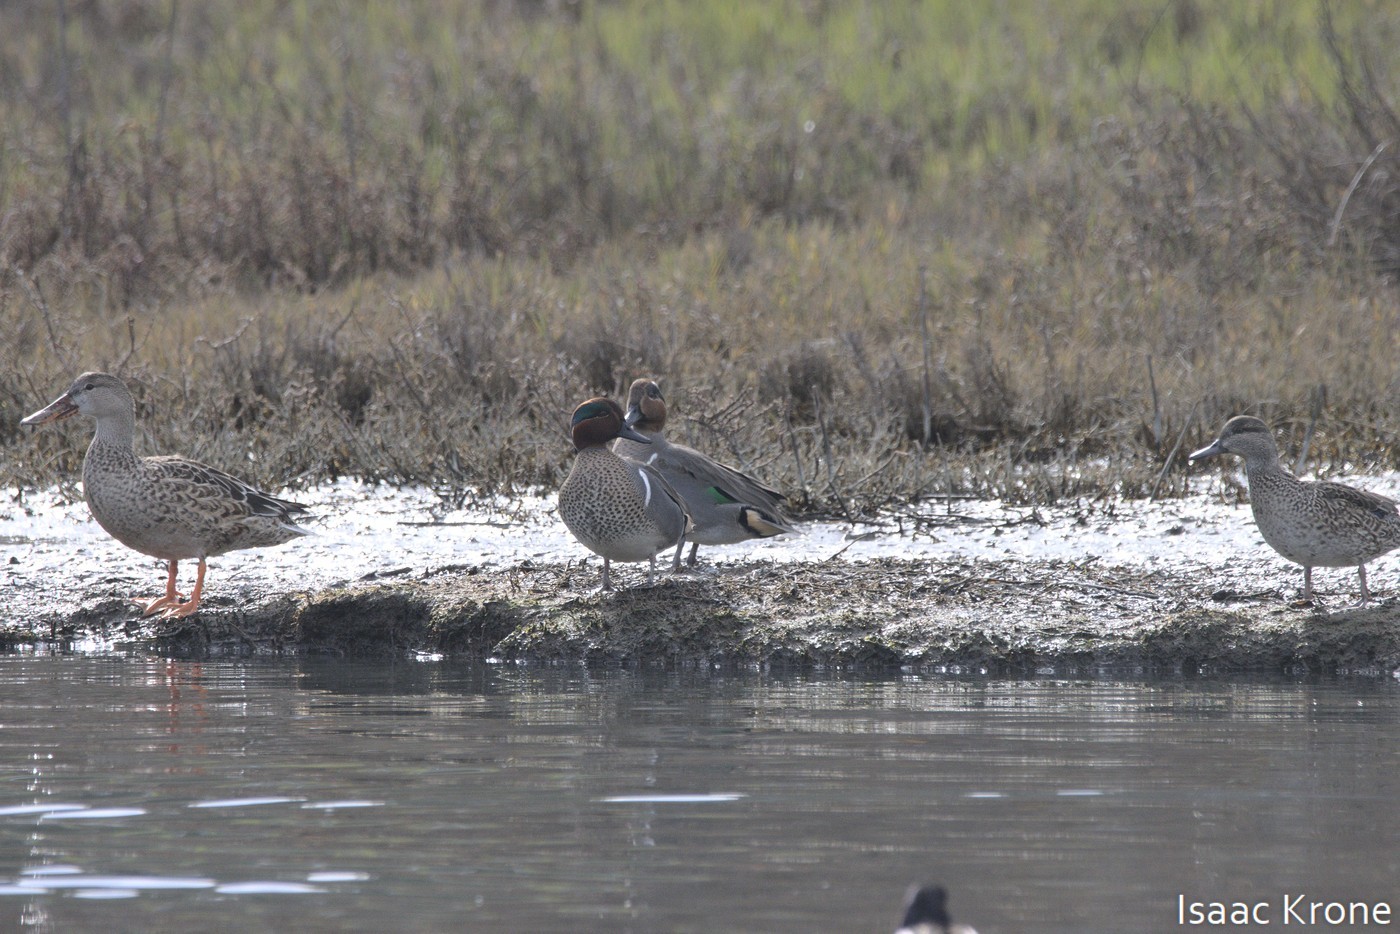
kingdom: Animalia
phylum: Chordata
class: Aves
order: Anseriformes
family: Anatidae
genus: Anas
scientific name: Anas carolinensis
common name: Green-winged teal
